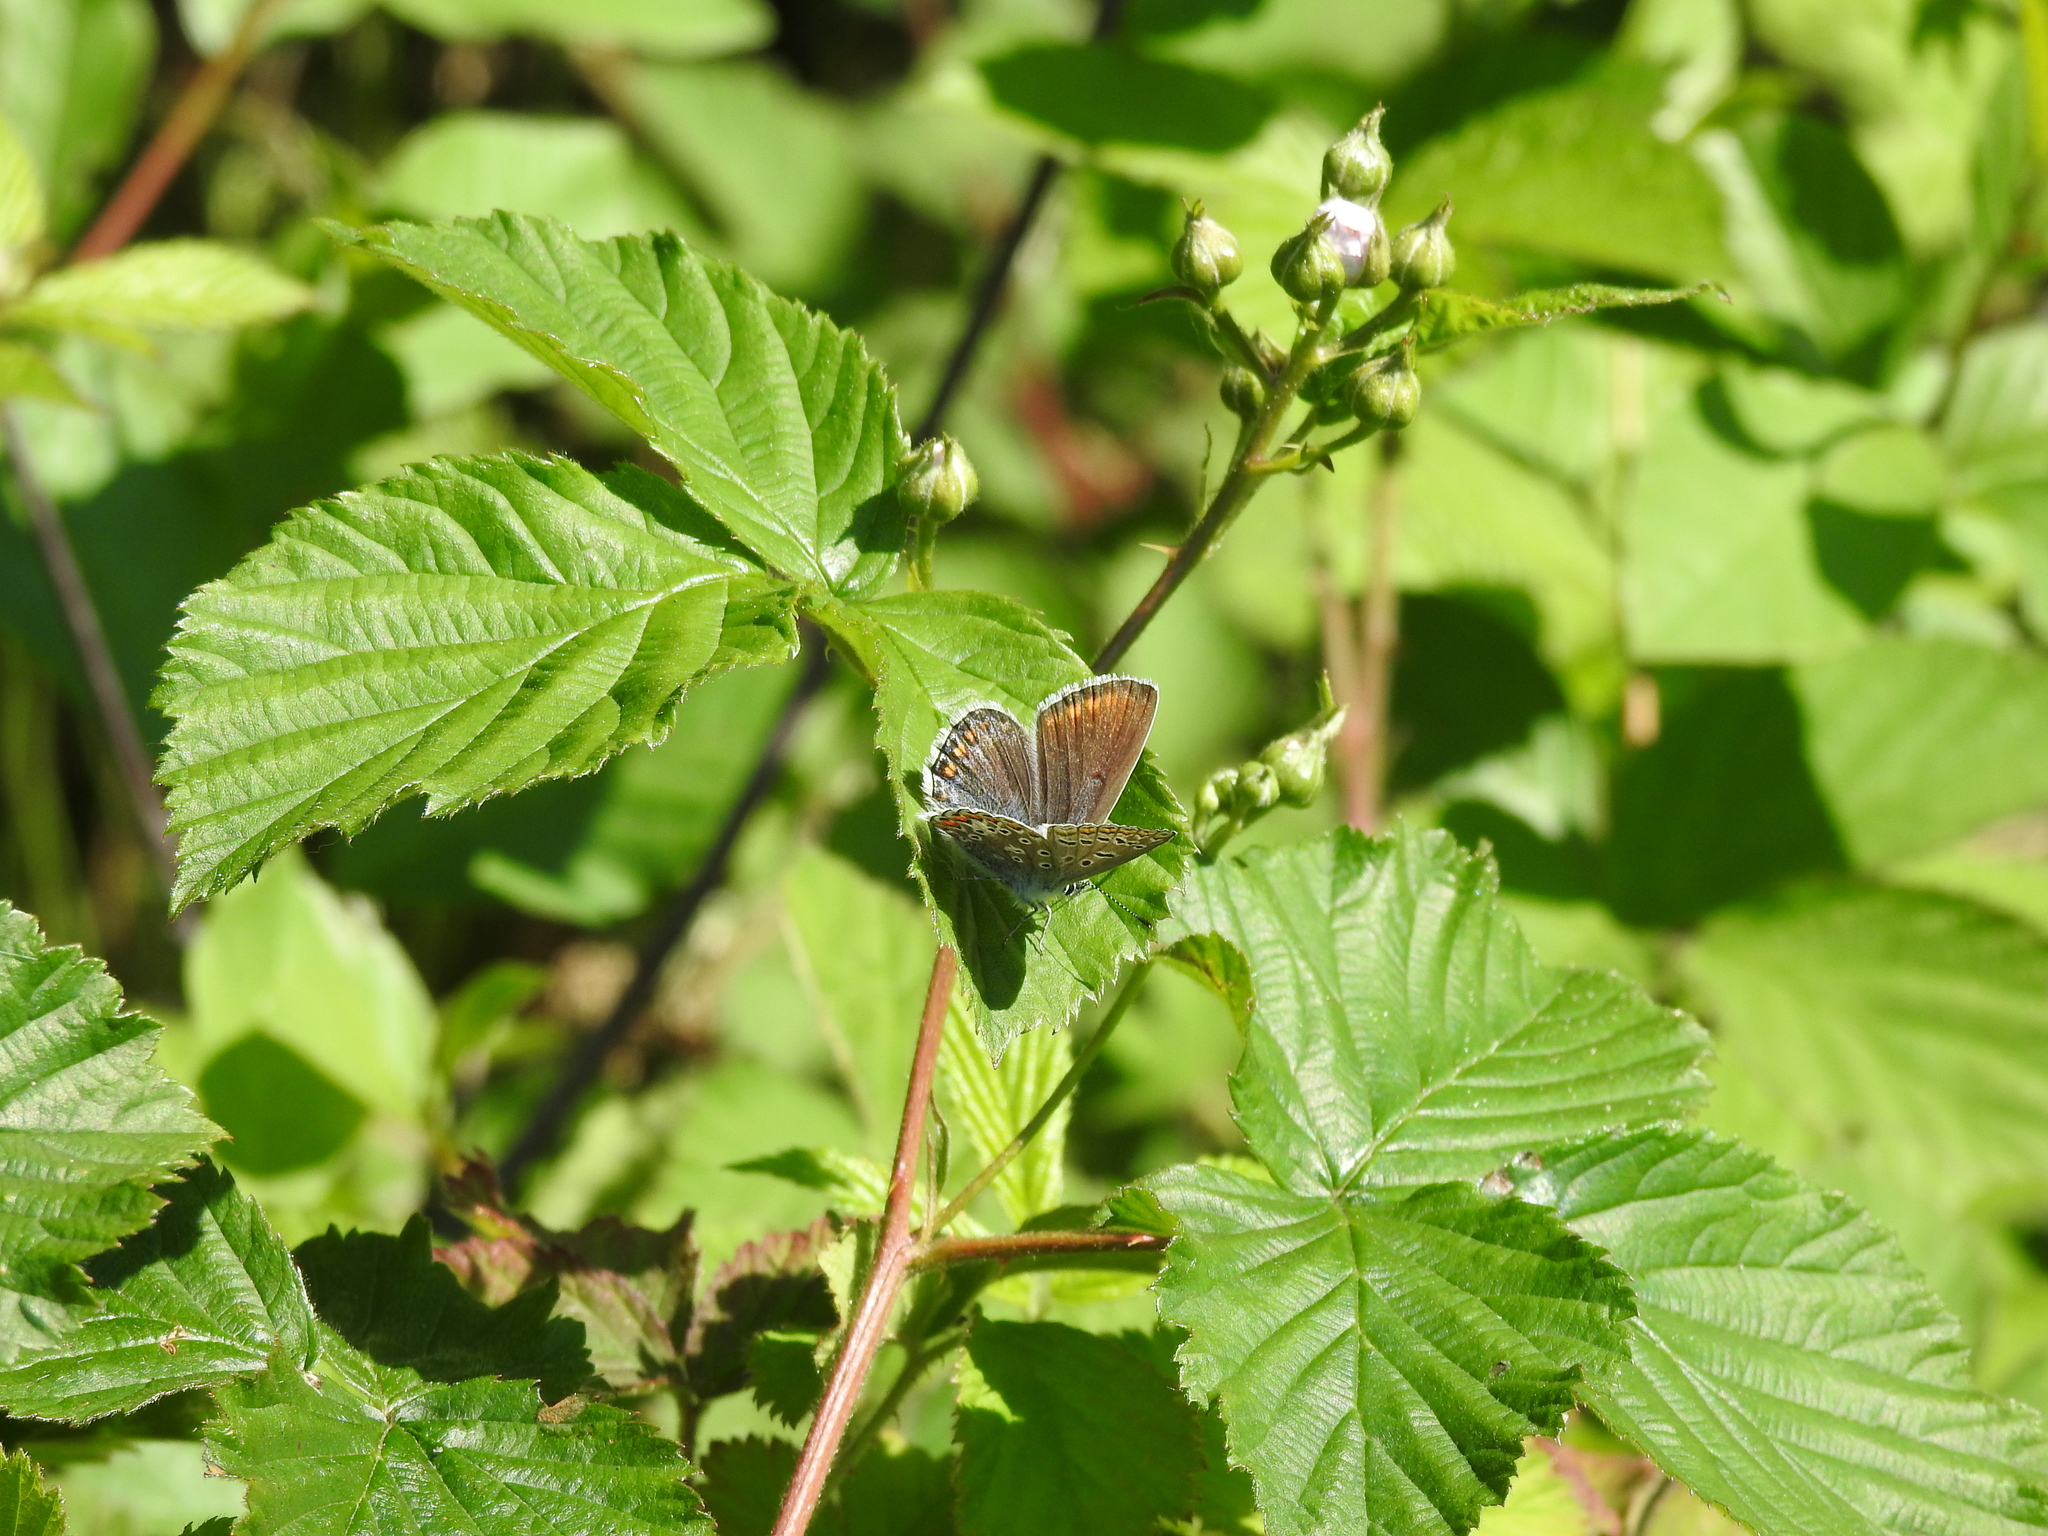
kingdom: Animalia
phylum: Arthropoda
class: Insecta
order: Lepidoptera
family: Lycaenidae
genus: Polyommatus
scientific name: Polyommatus icarus
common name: Common blue
